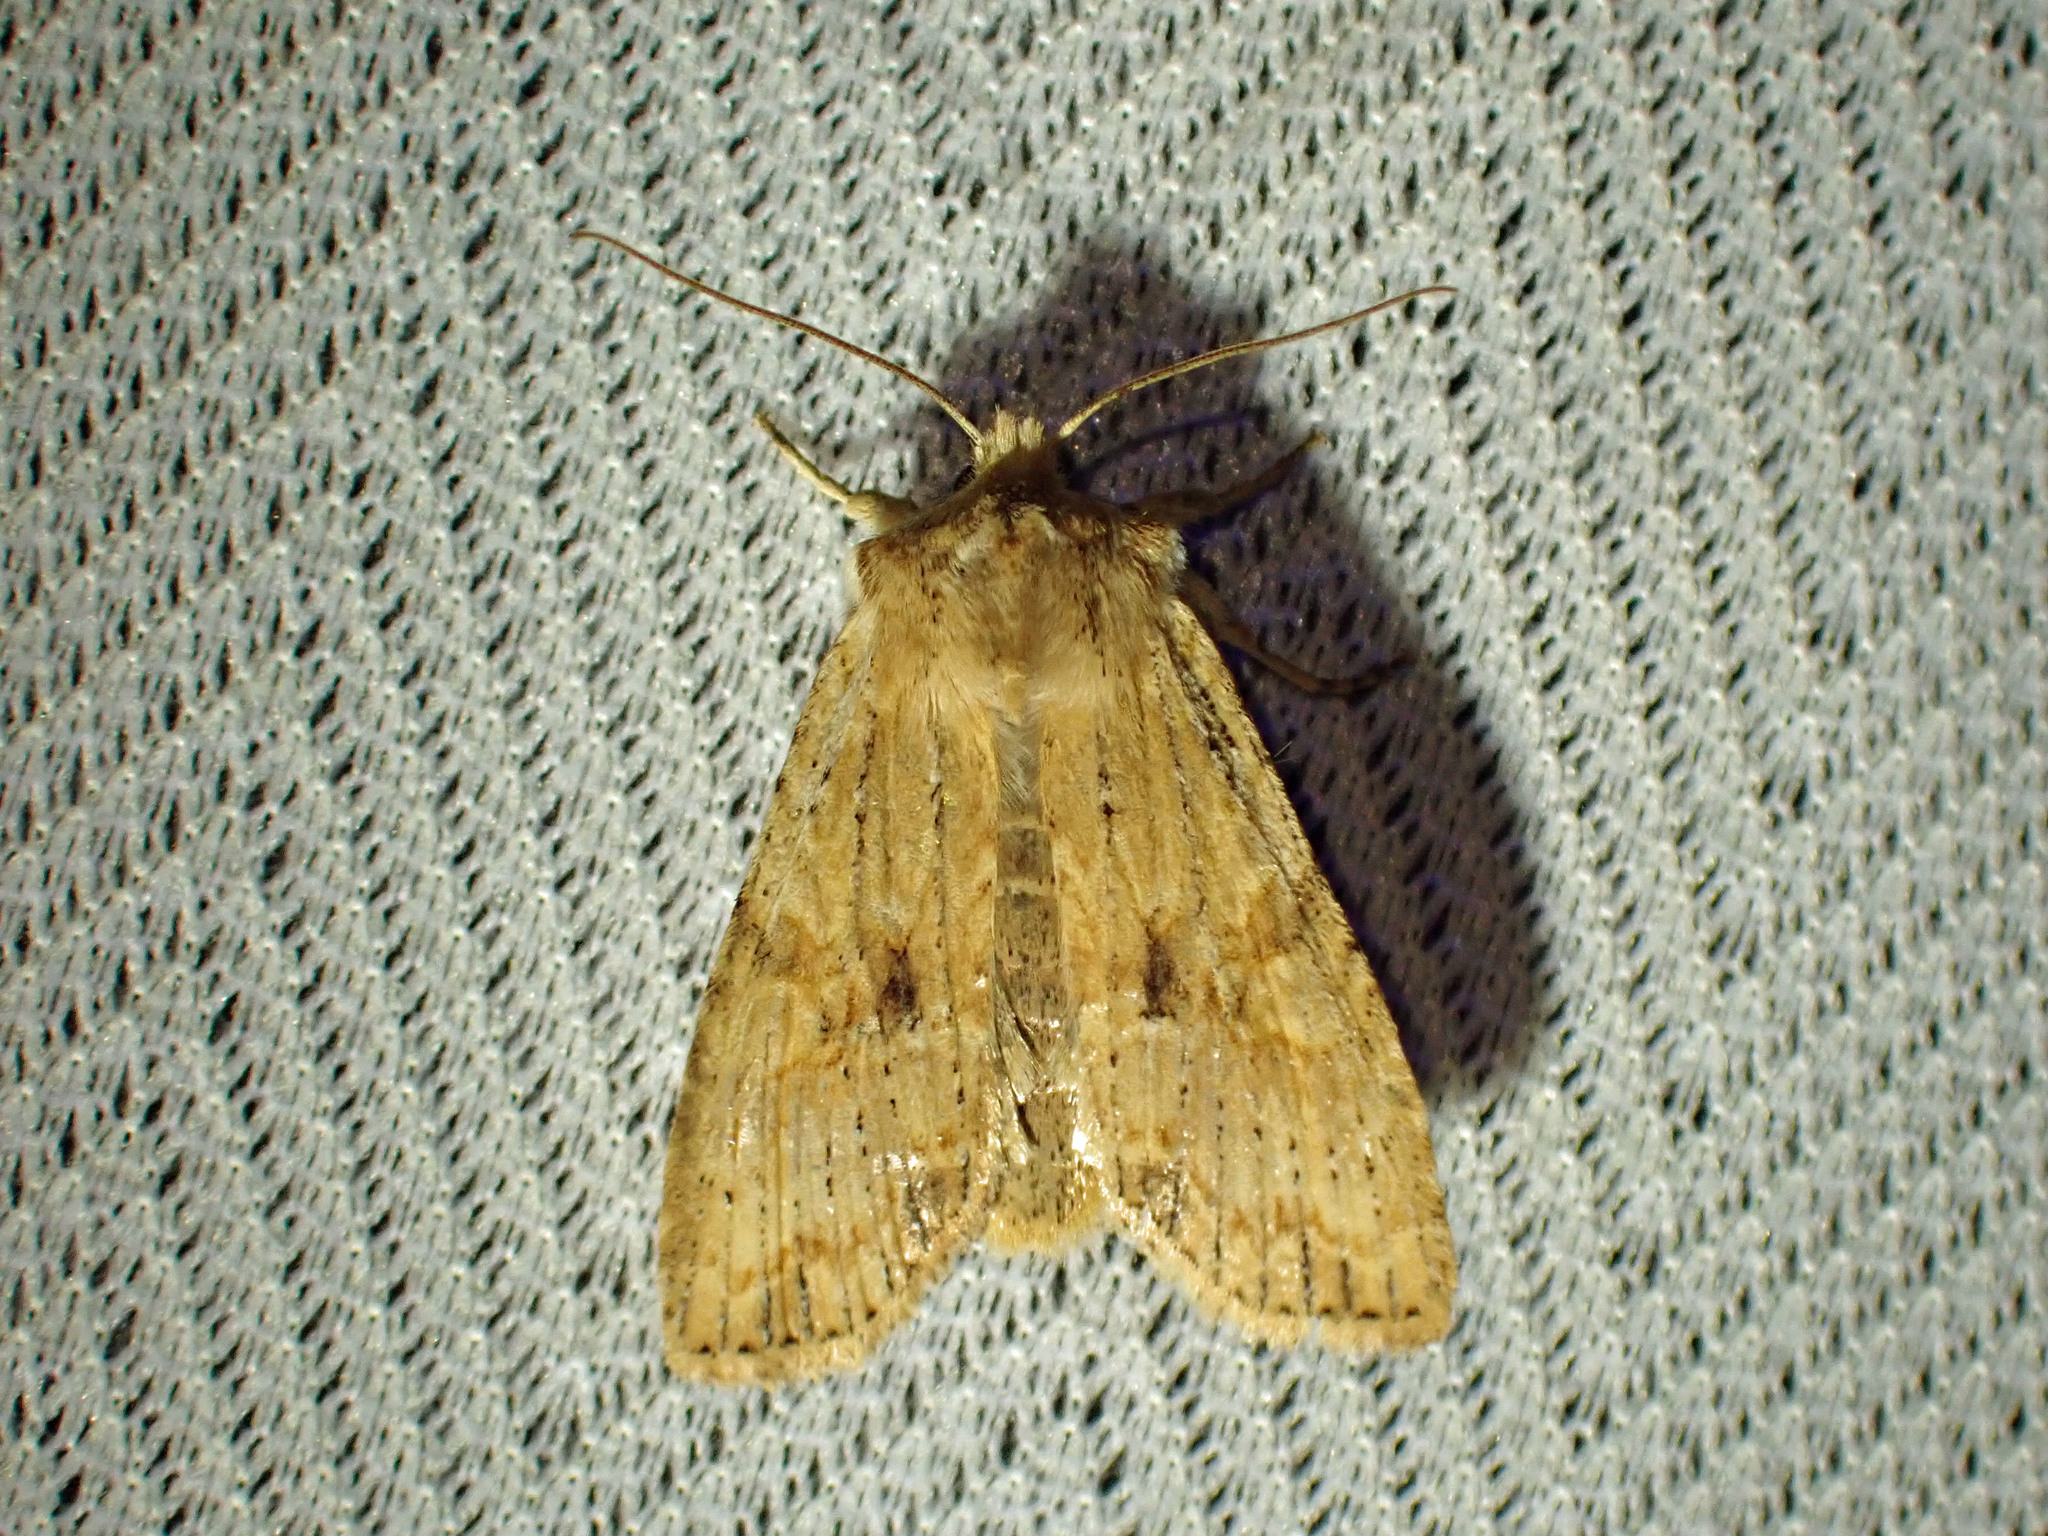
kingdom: Animalia
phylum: Arthropoda
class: Insecta
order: Lepidoptera
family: Noctuidae
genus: Lithophane
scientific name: Lithophane innominata
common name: Nameless pinion moth
